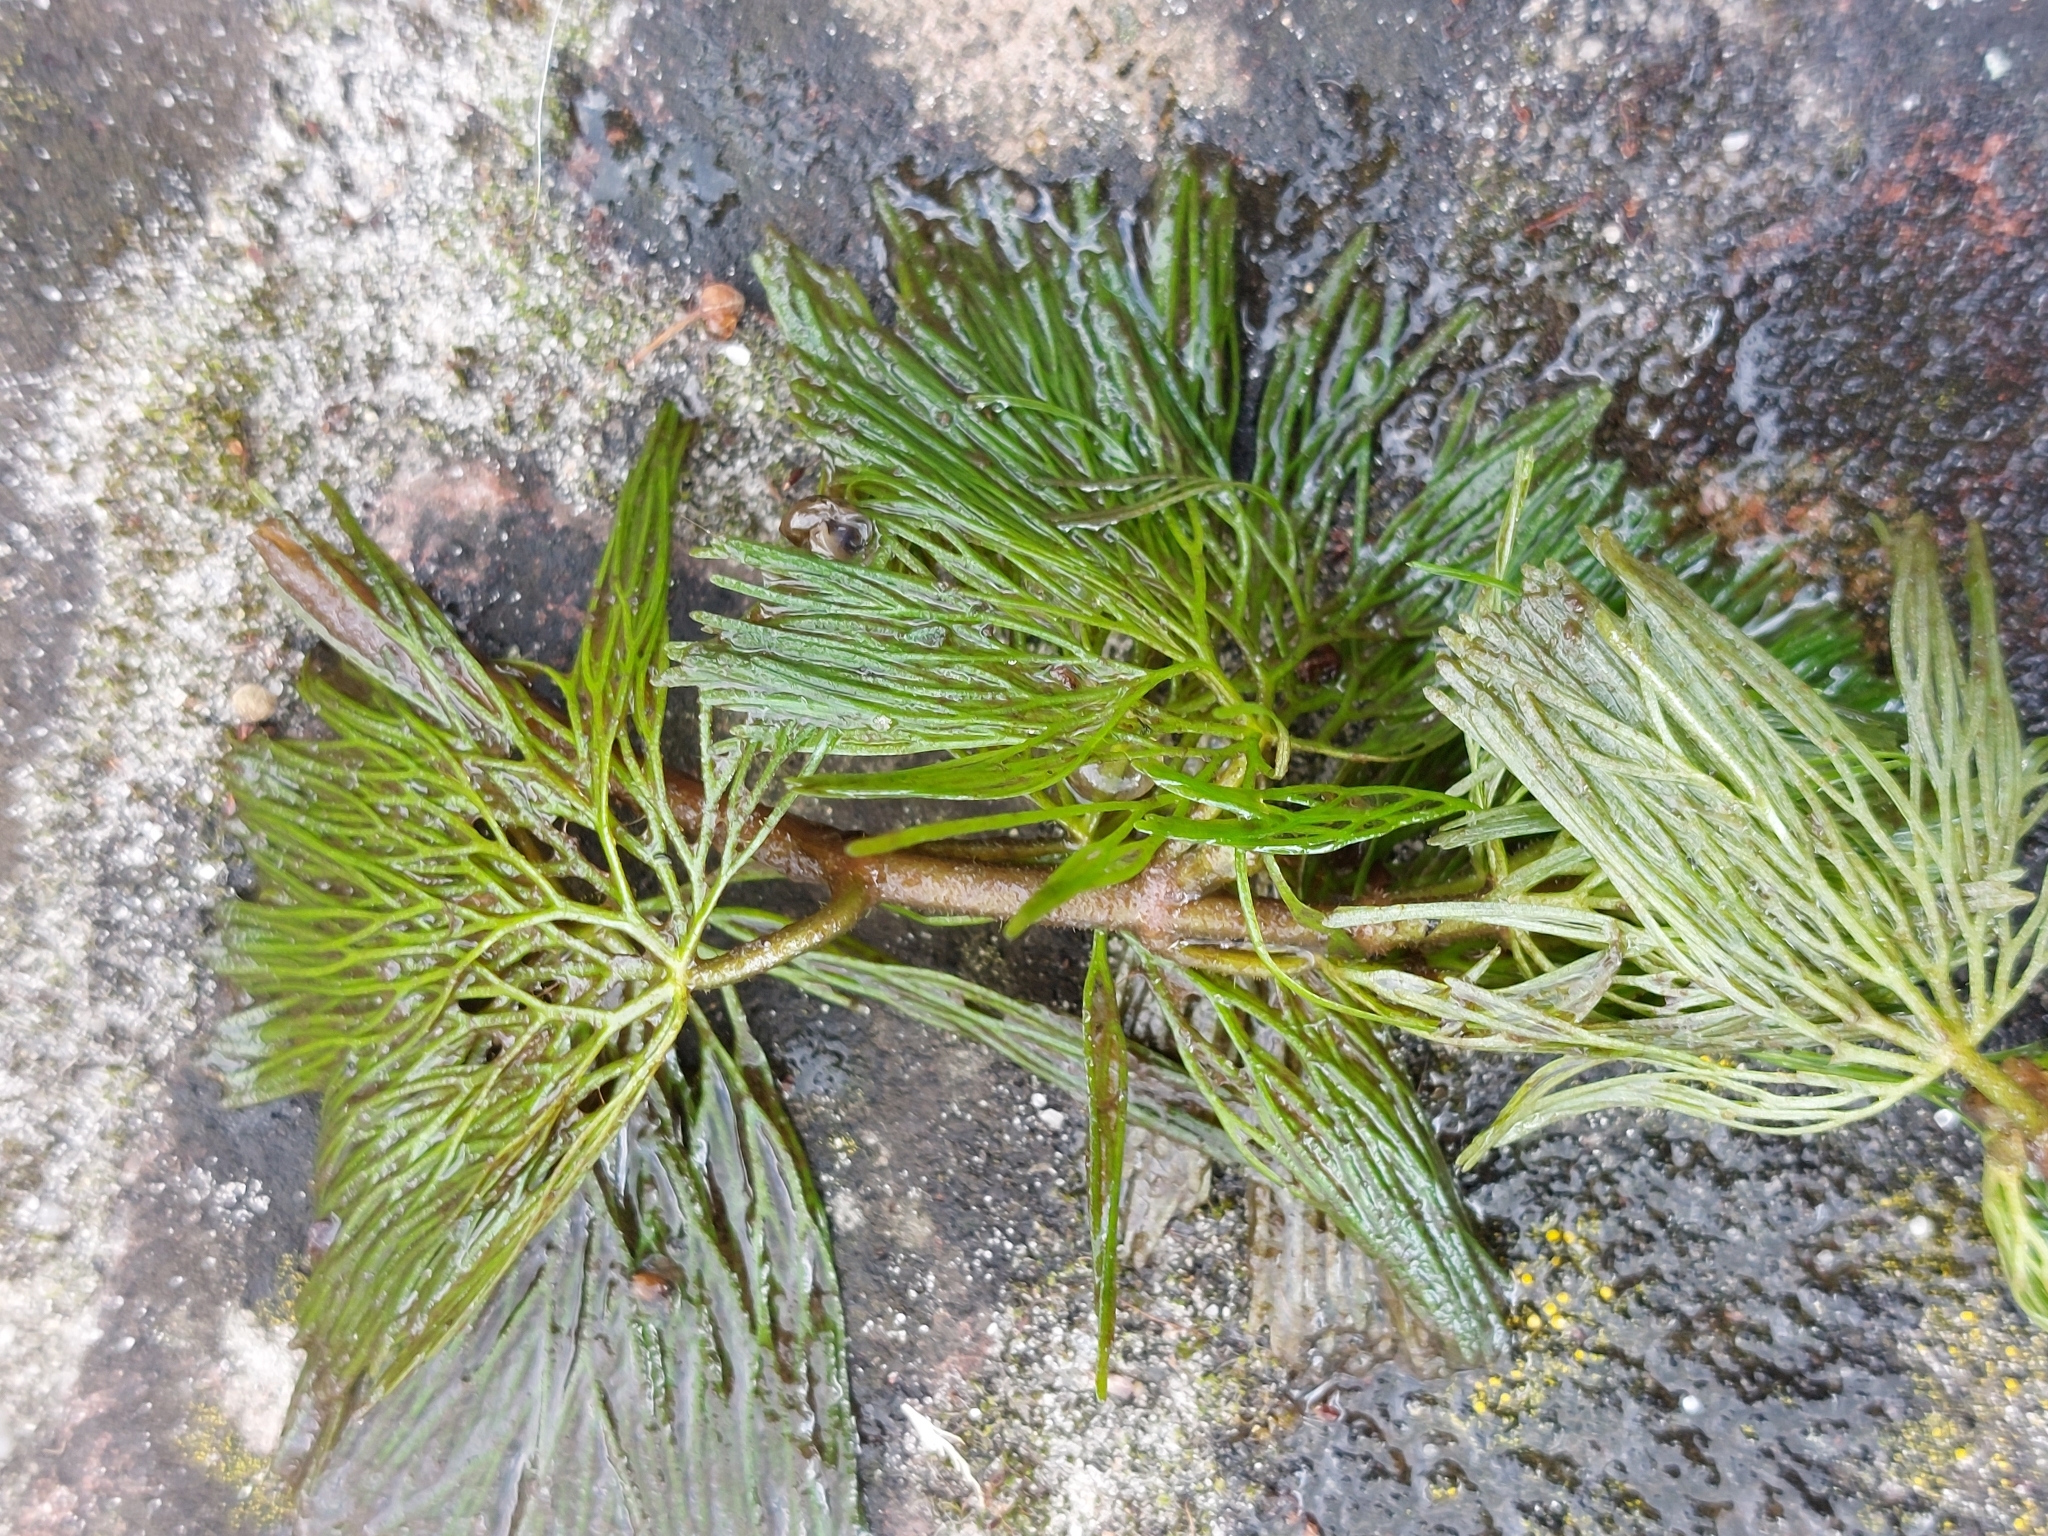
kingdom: Plantae
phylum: Tracheophyta
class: Magnoliopsida
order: Nymphaeales
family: Cabombaceae
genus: Cabomba
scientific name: Cabomba caroliniana
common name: Fanwort
